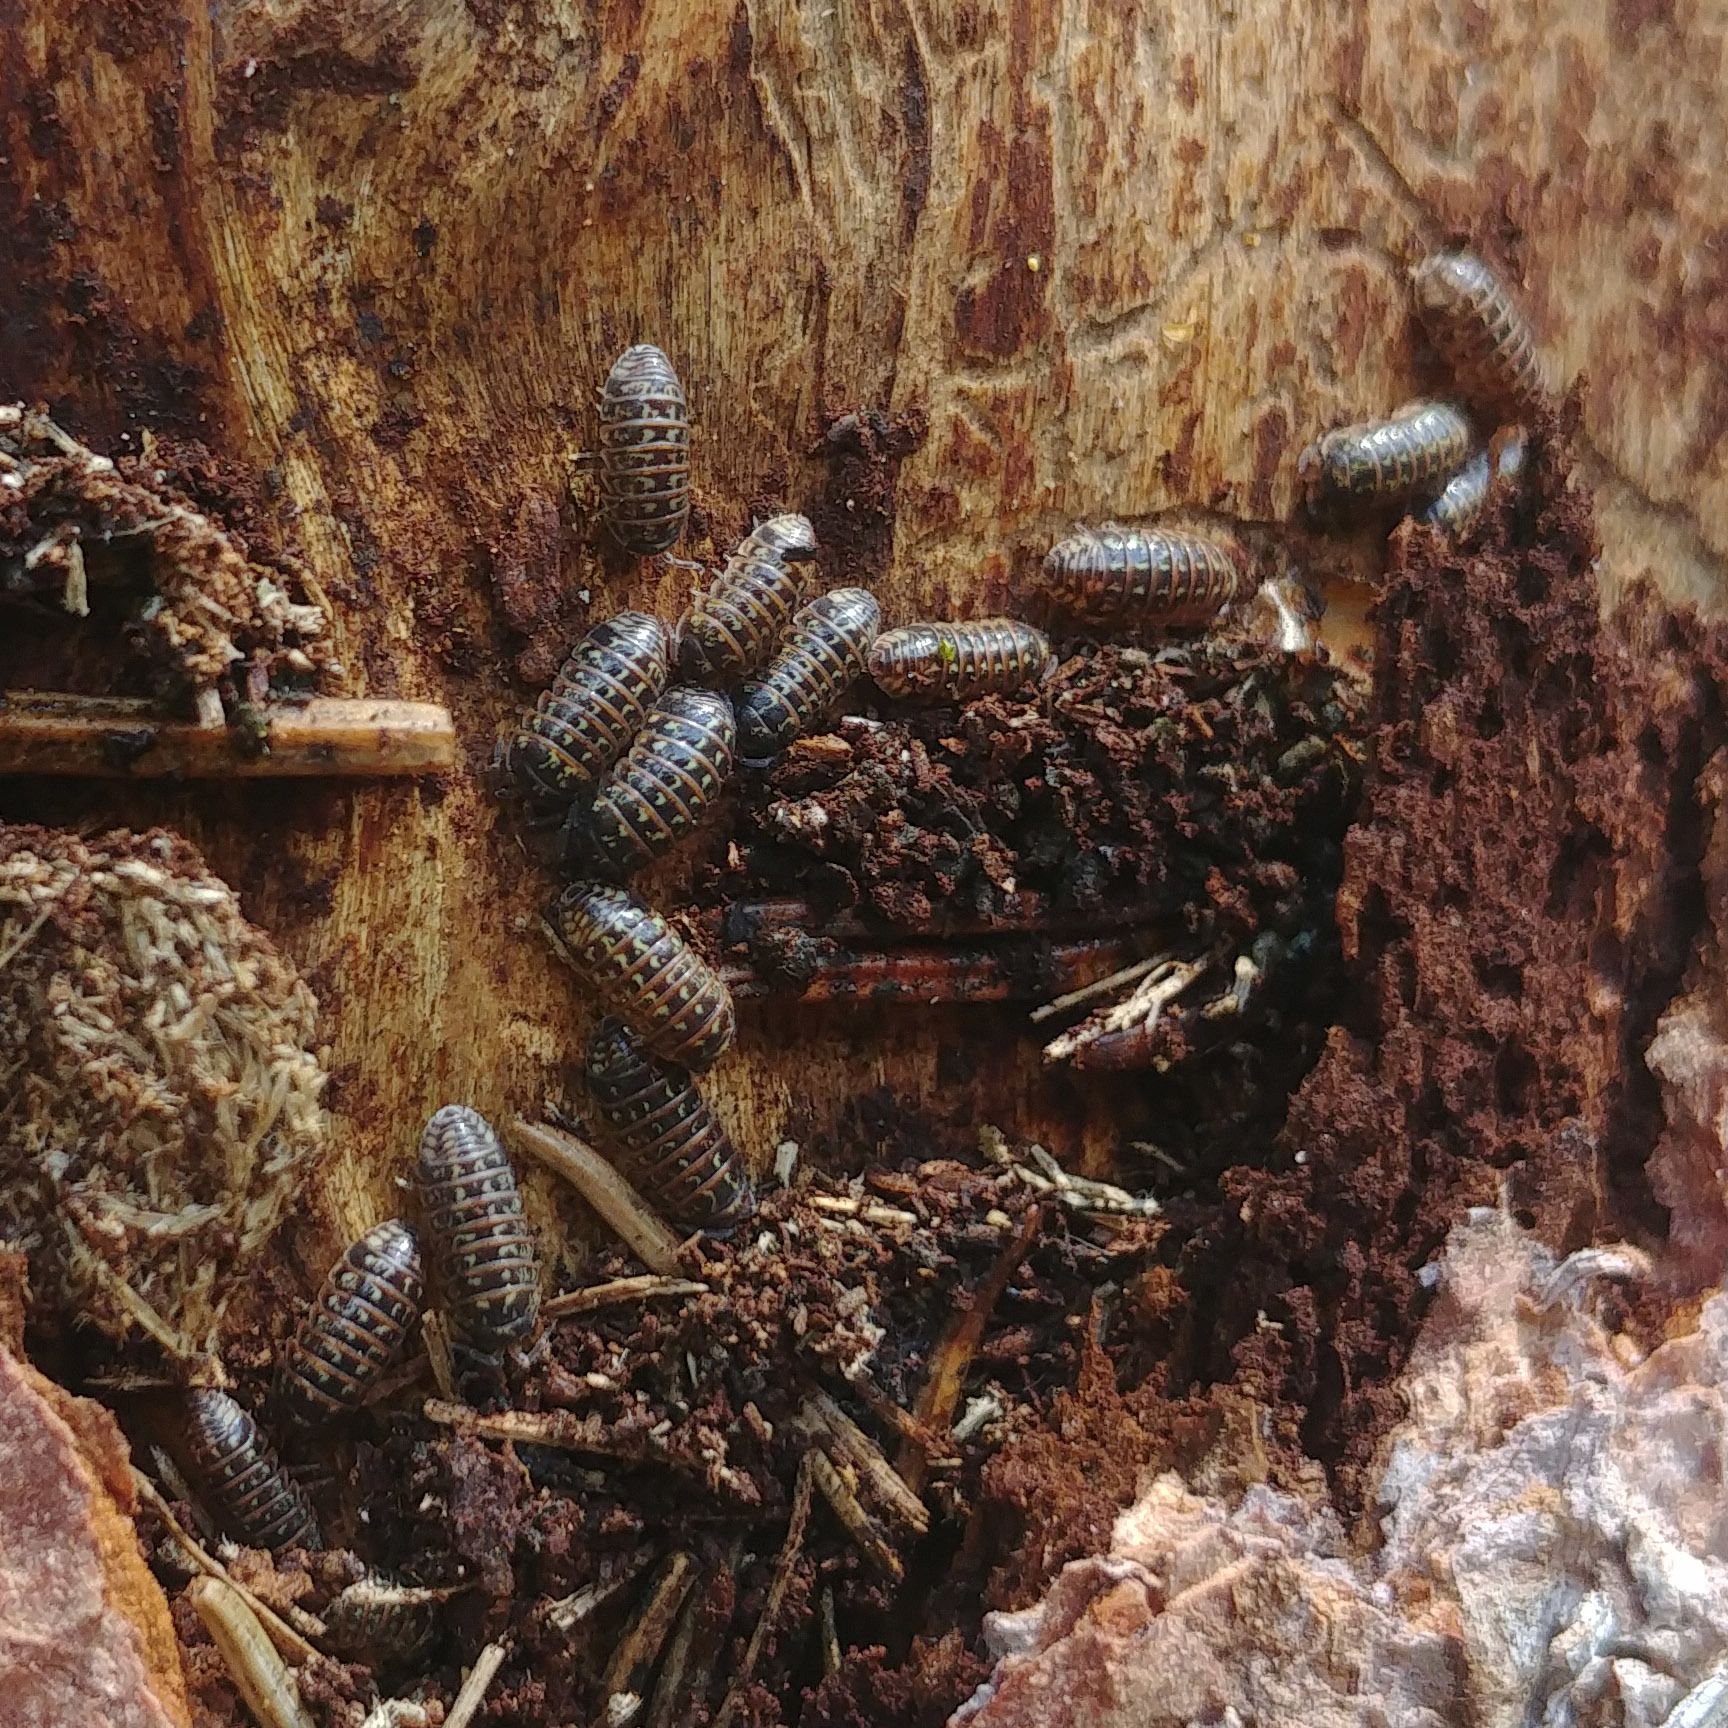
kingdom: Animalia
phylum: Arthropoda
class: Malacostraca
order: Isopoda
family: Armadillidiidae
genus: Armadillidium
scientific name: Armadillidium pulchellum
